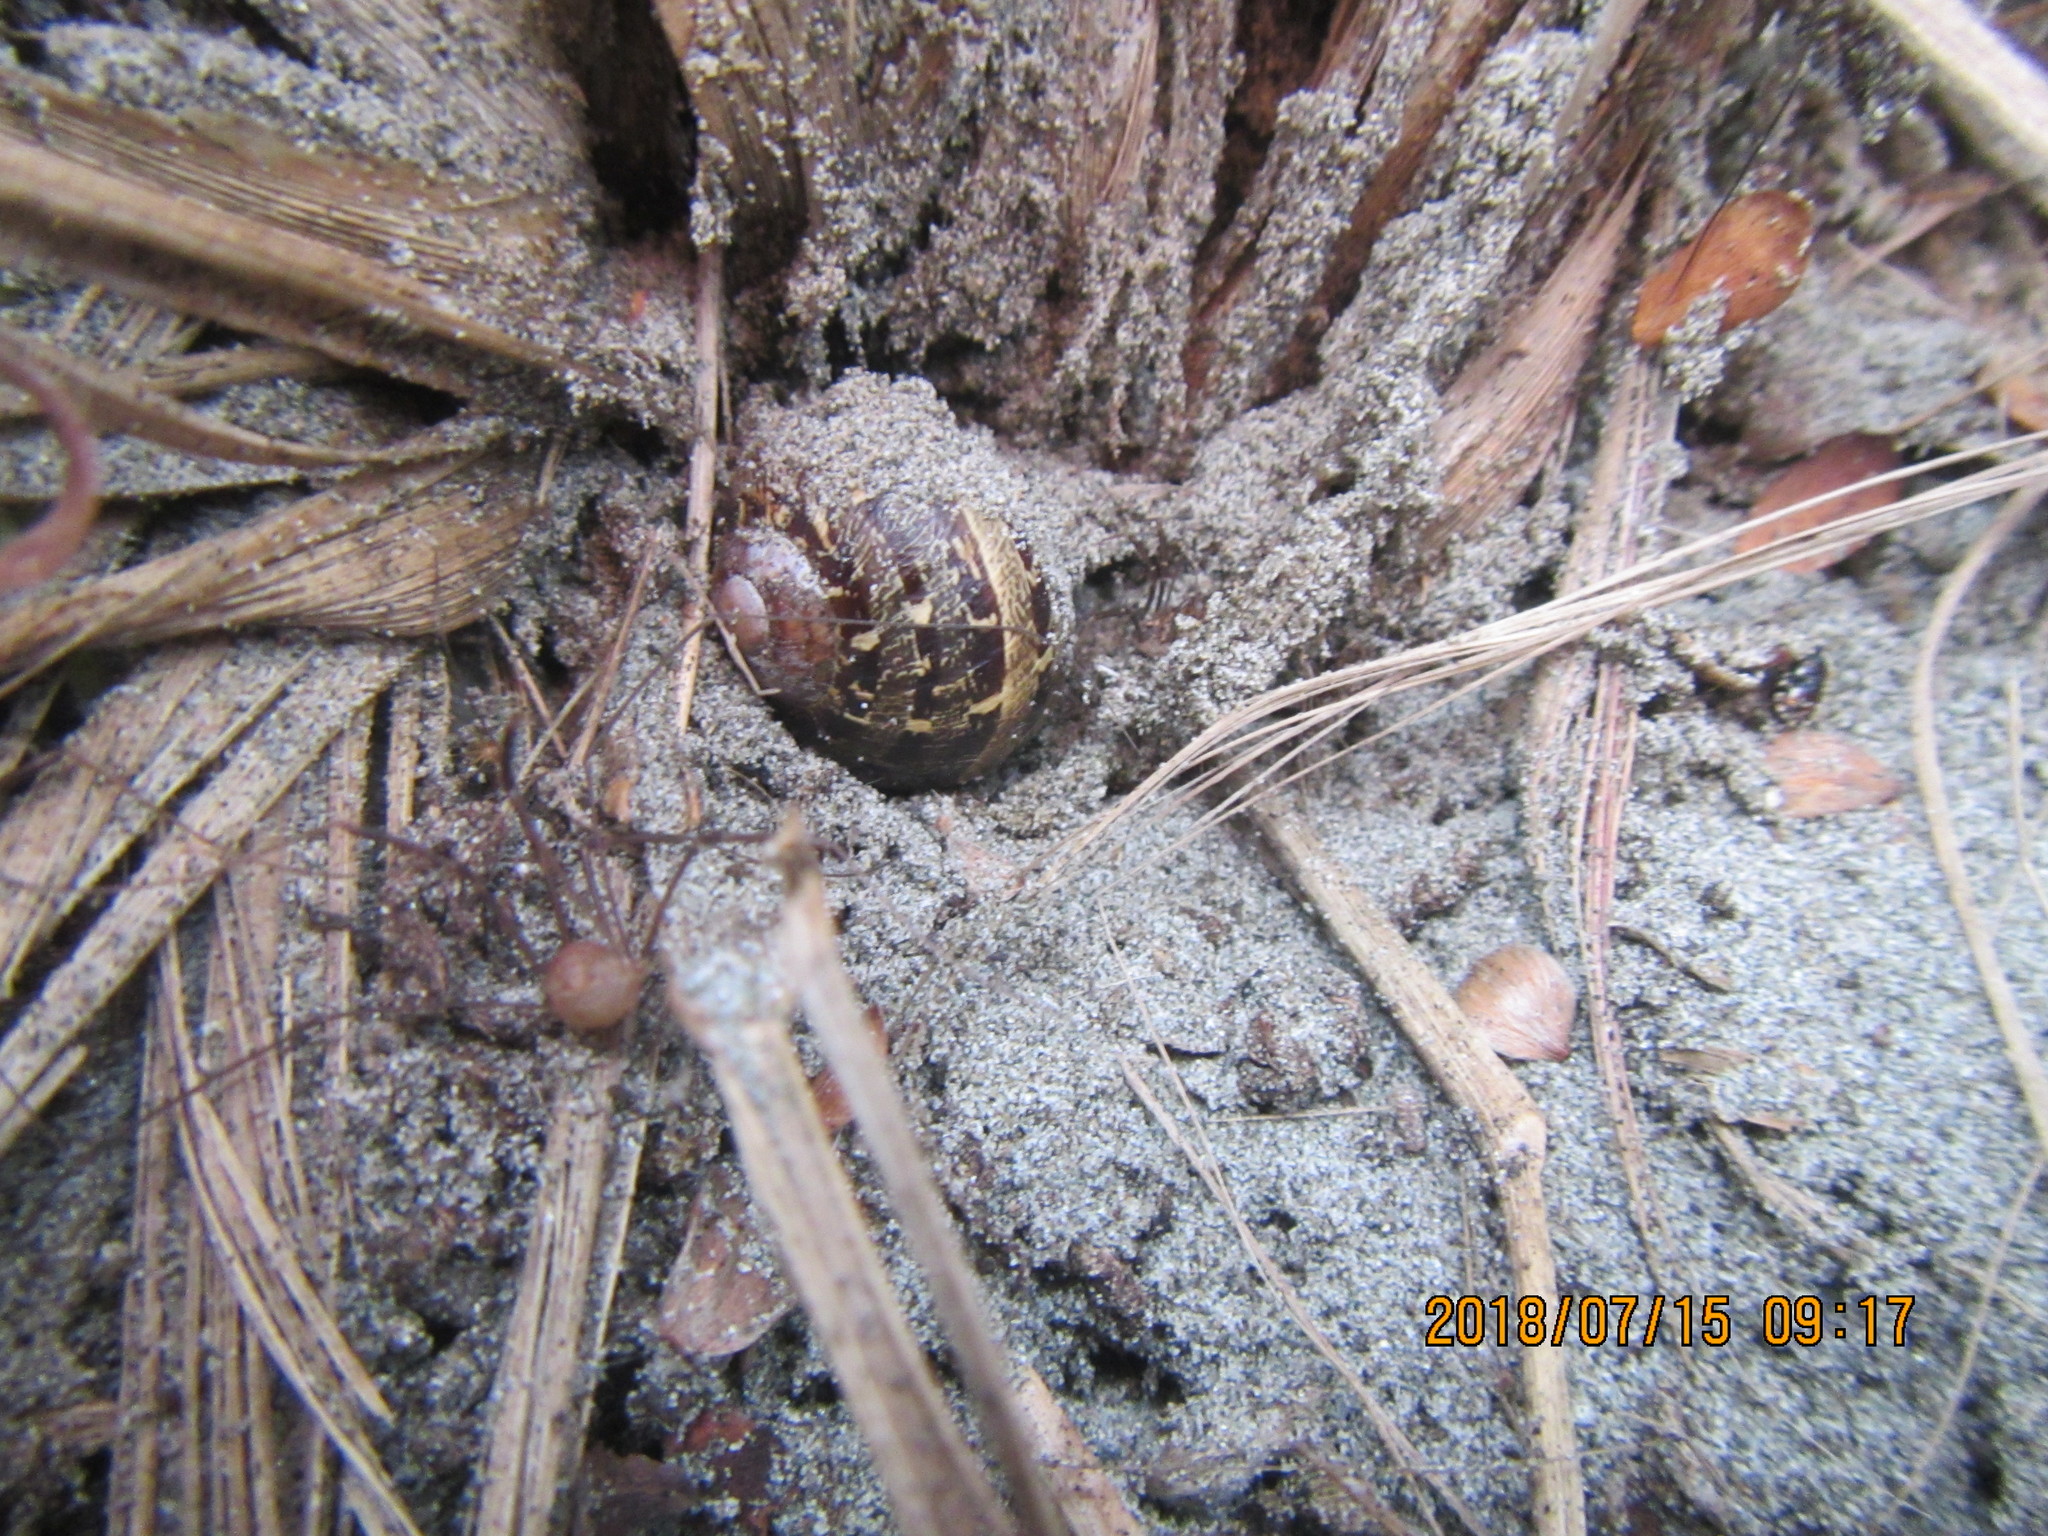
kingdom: Animalia
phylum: Mollusca
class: Gastropoda
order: Stylommatophora
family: Helicidae
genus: Cornu
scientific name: Cornu aspersum
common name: Brown garden snail
